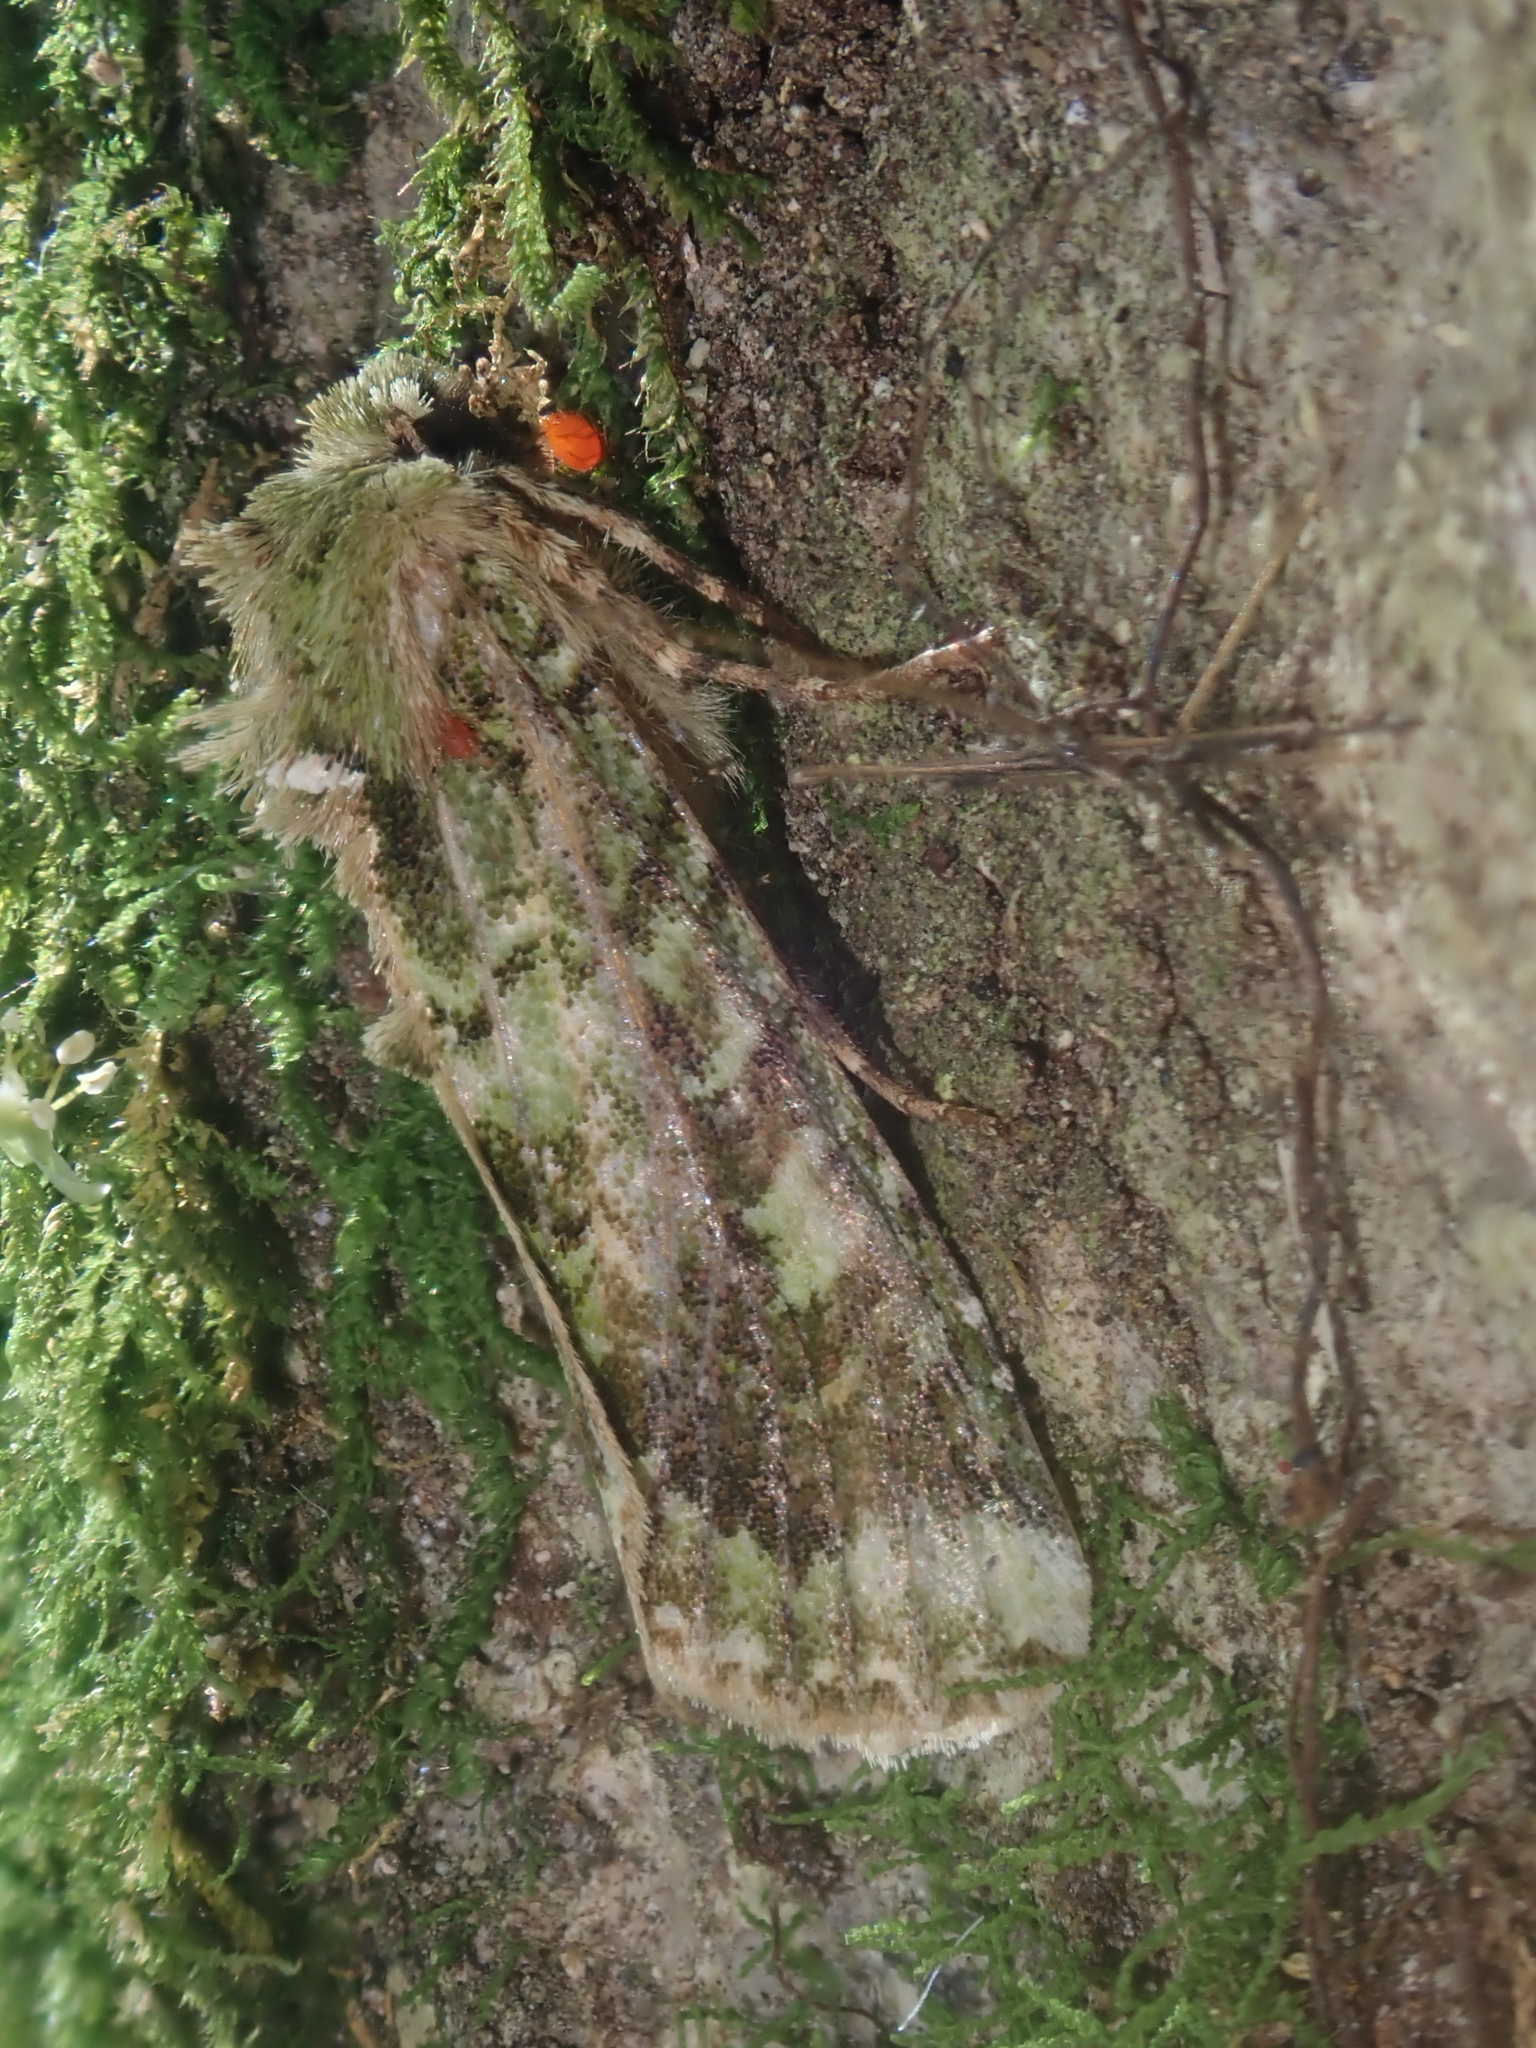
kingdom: Animalia
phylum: Arthropoda
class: Insecta
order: Lepidoptera
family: Noctuidae
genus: Feredayia
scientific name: Feredayia grammosa
